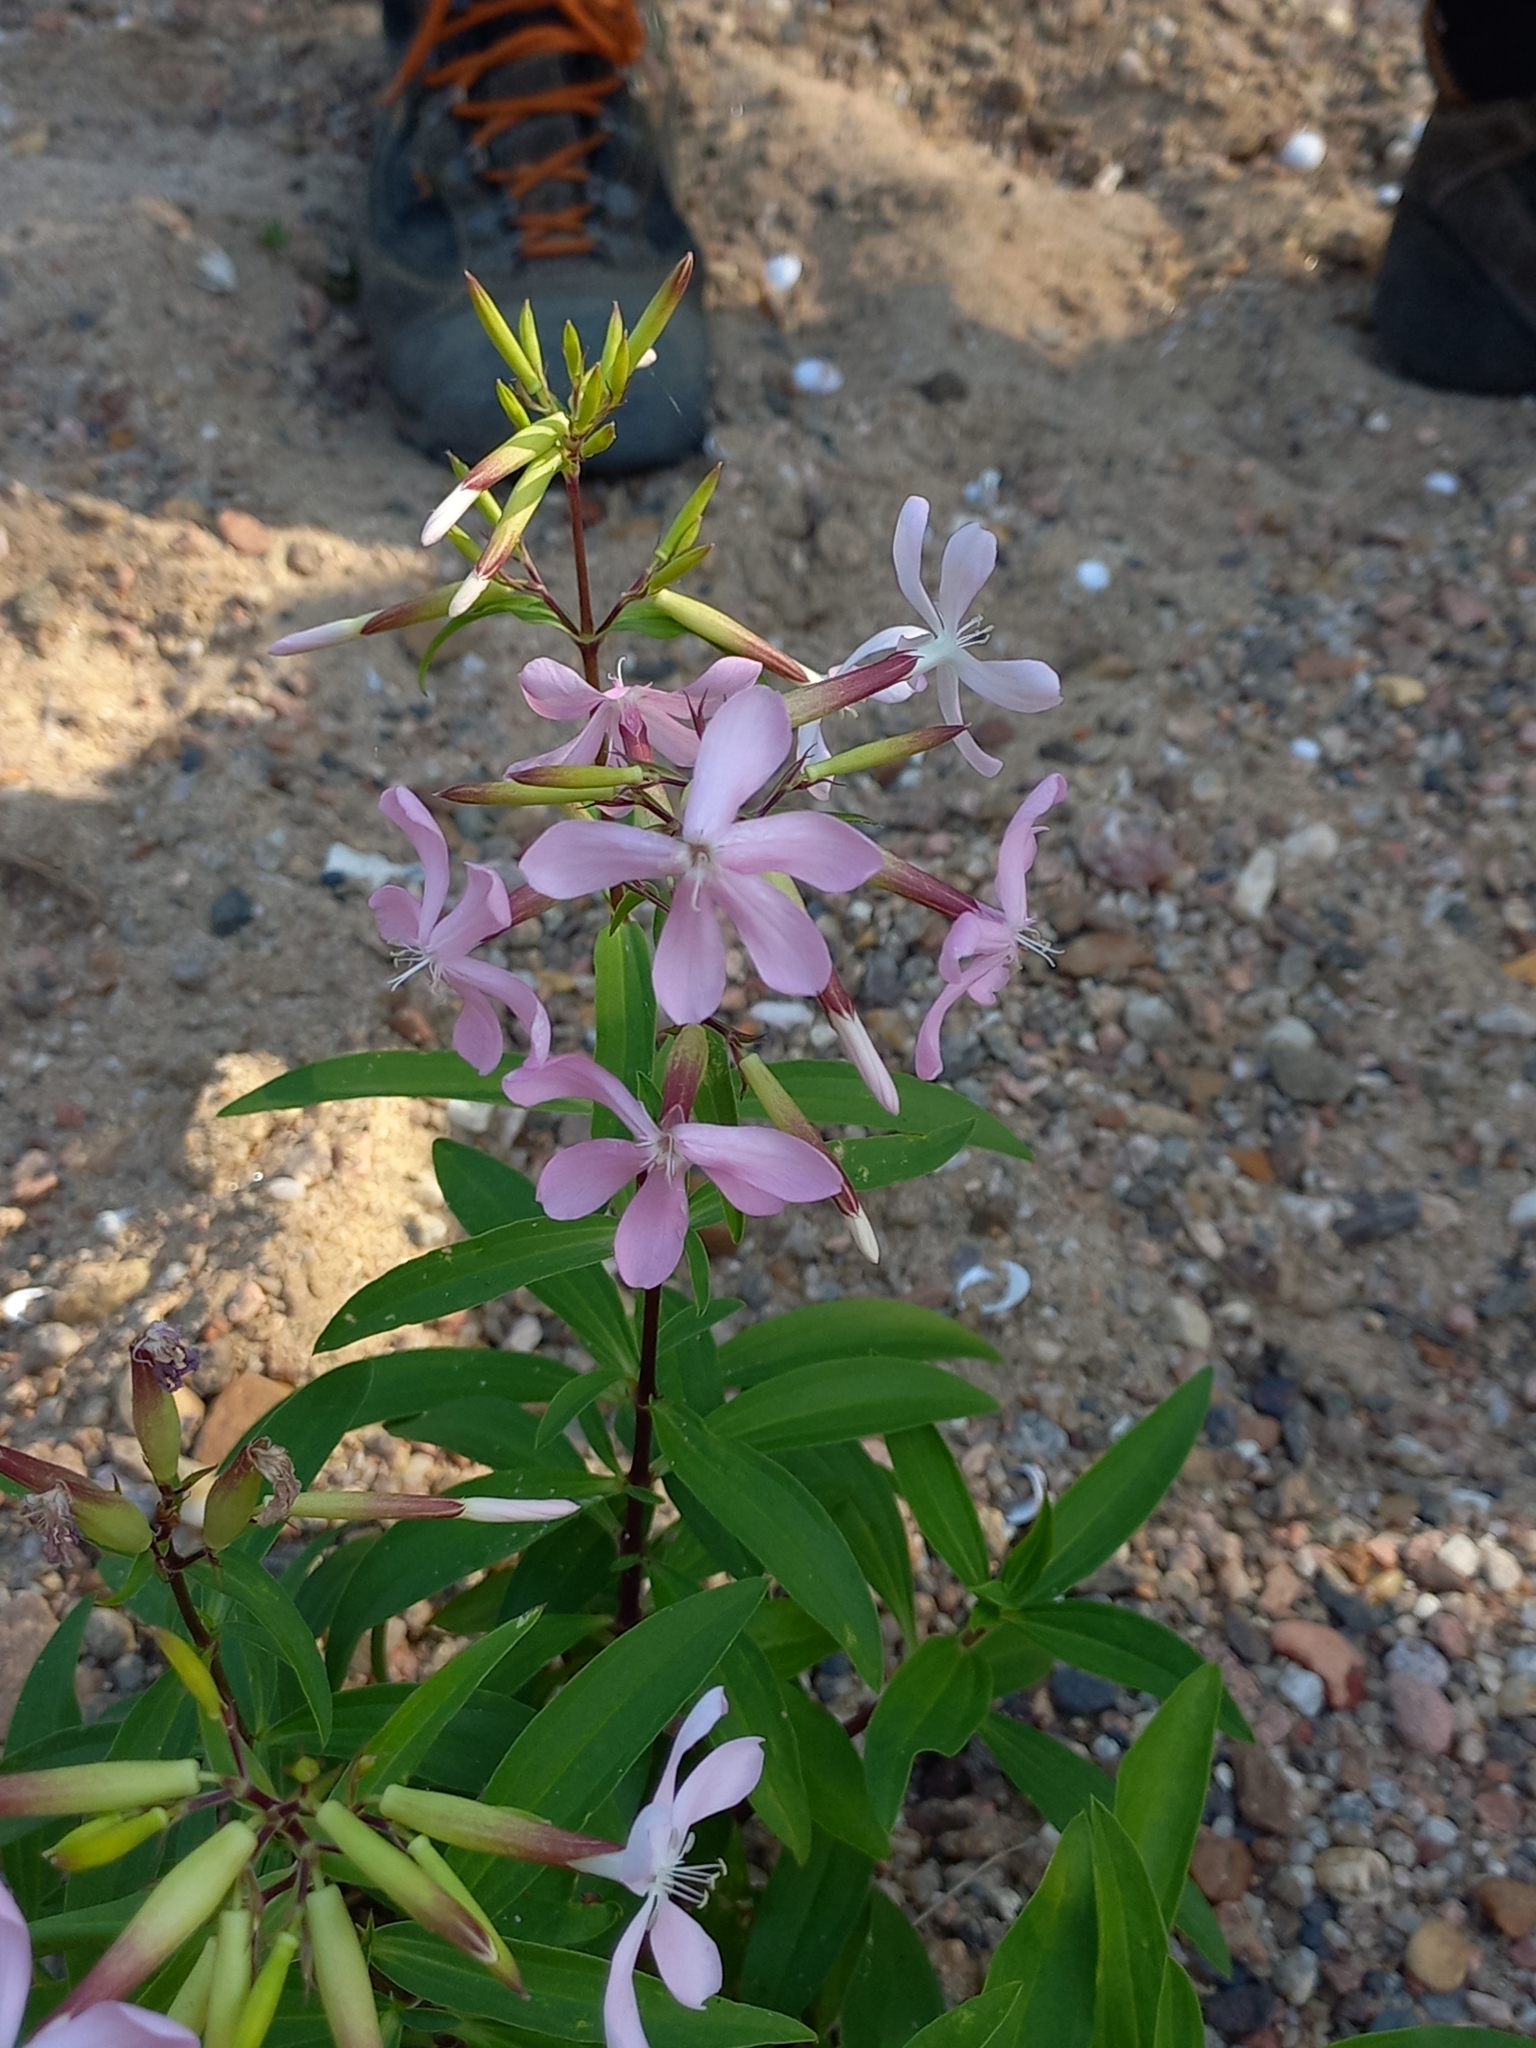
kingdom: Plantae
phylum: Tracheophyta
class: Magnoliopsida
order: Caryophyllales
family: Caryophyllaceae
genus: Saponaria
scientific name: Saponaria officinalis
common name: Soapwort
